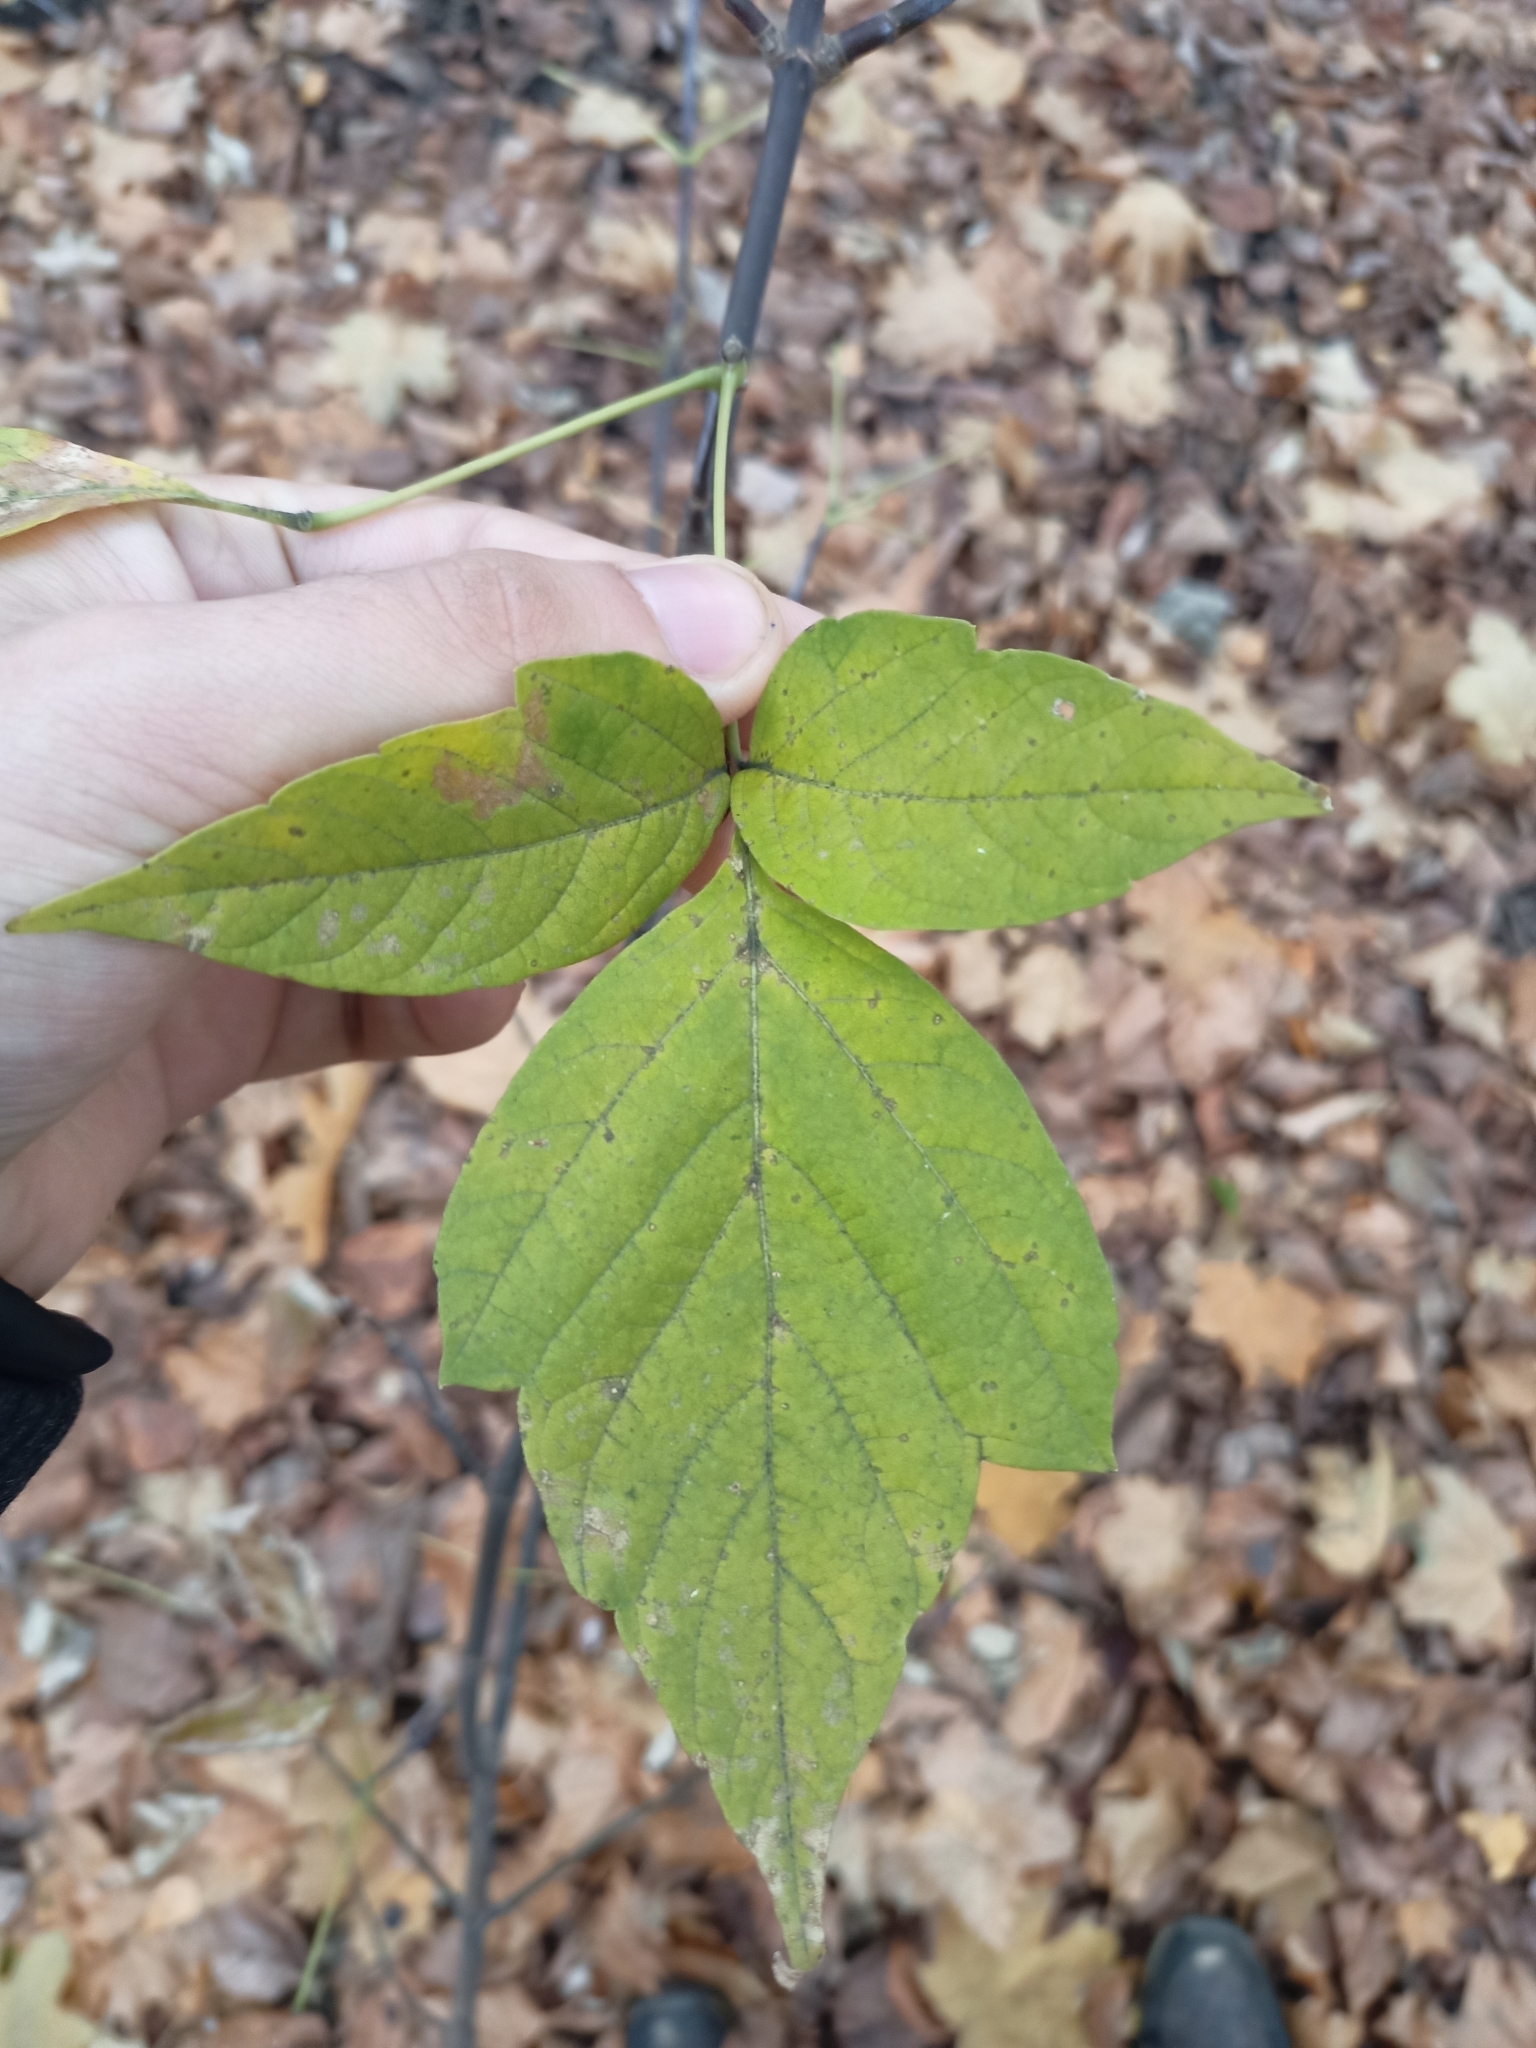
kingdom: Plantae
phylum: Tracheophyta
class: Magnoliopsida
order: Sapindales
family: Sapindaceae
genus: Acer
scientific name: Acer negundo
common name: Ashleaf maple
